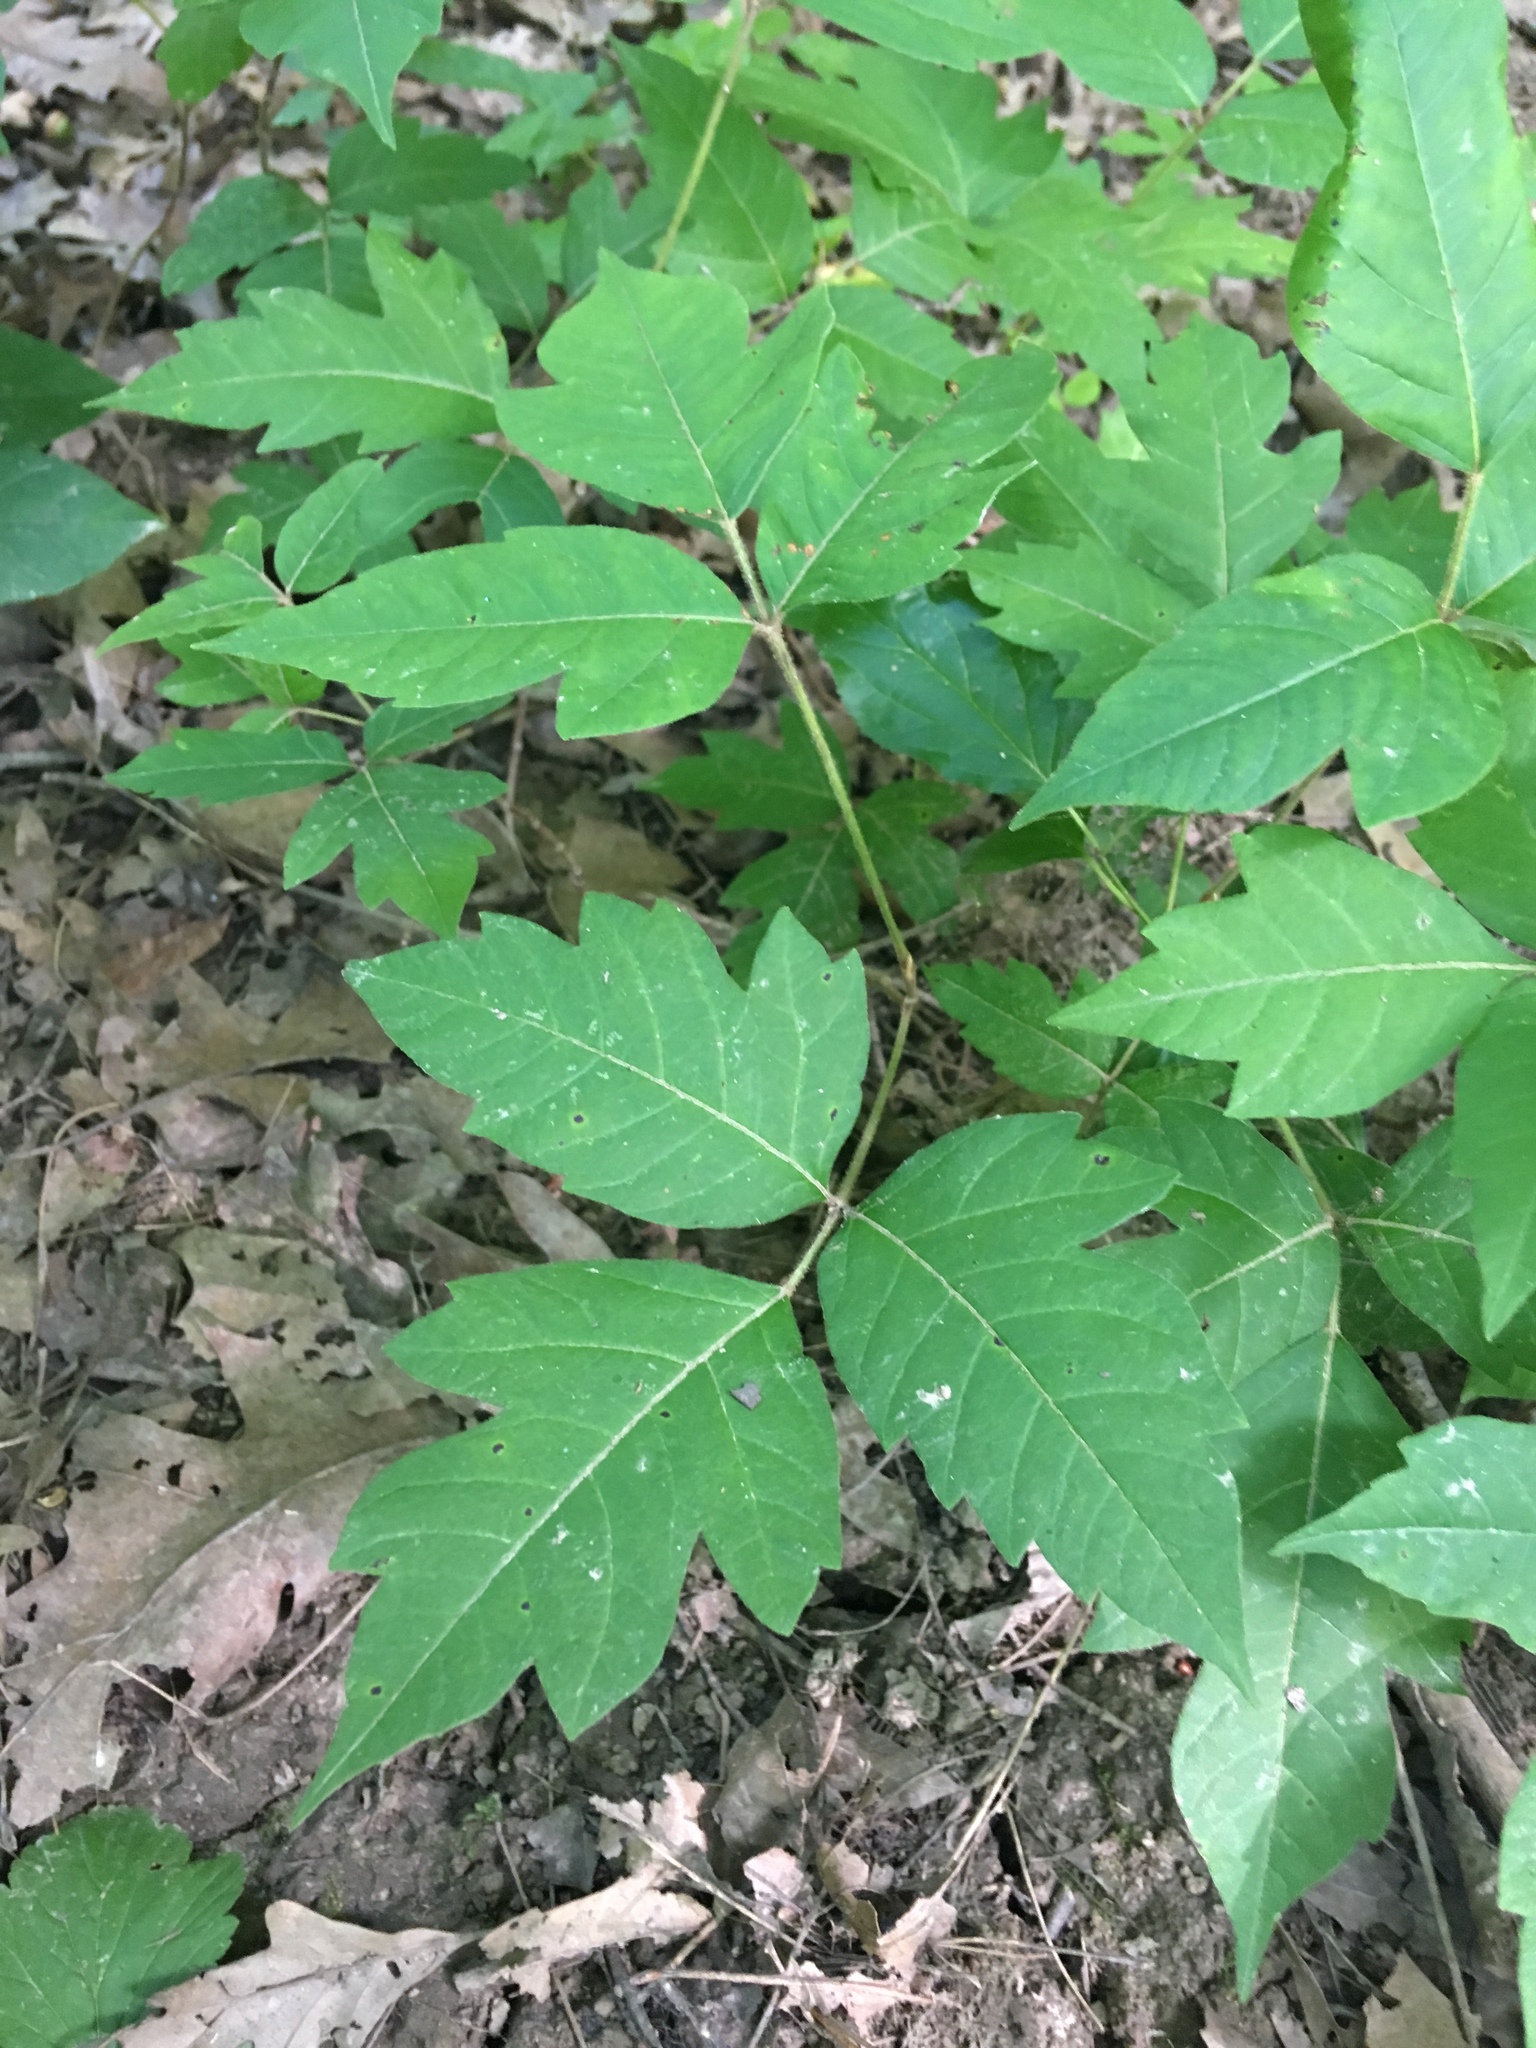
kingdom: Plantae
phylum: Tracheophyta
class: Magnoliopsida
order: Sapindales
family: Anacardiaceae
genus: Toxicodendron
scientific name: Toxicodendron radicans
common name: Poison ivy
